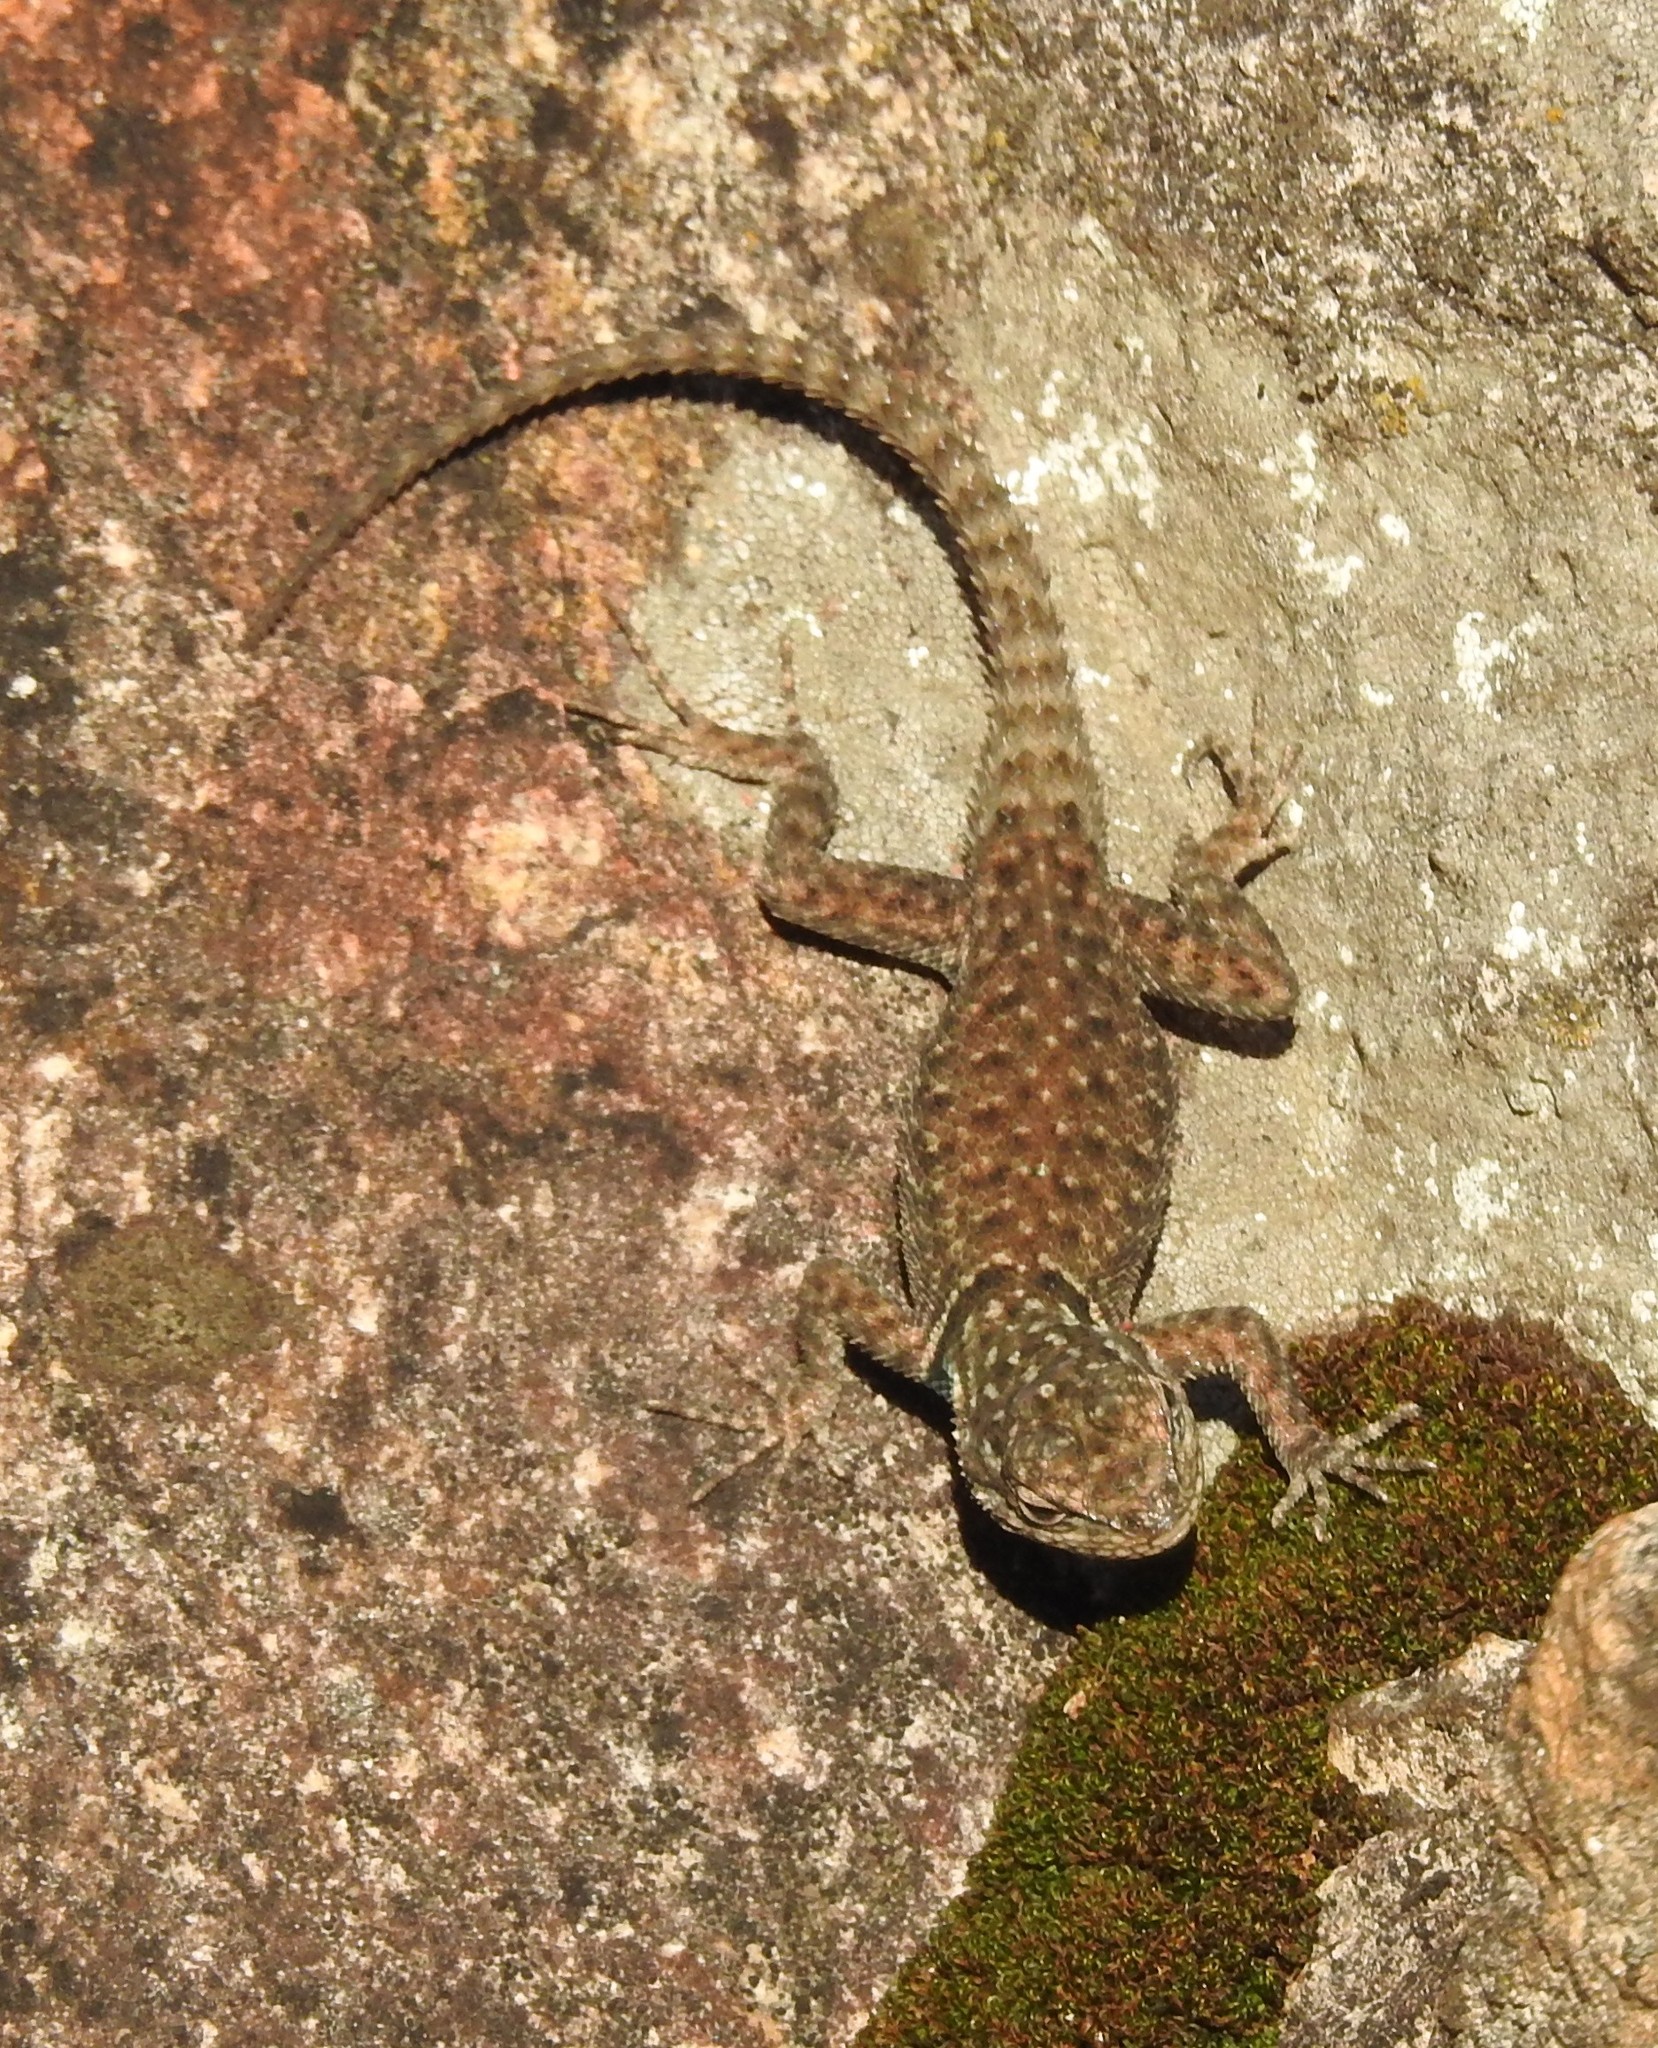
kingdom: Animalia
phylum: Chordata
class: Squamata
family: Phrynosomatidae
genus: Sceloporus
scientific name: Sceloporus jarrovii
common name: Yarrow's spiny lizard
